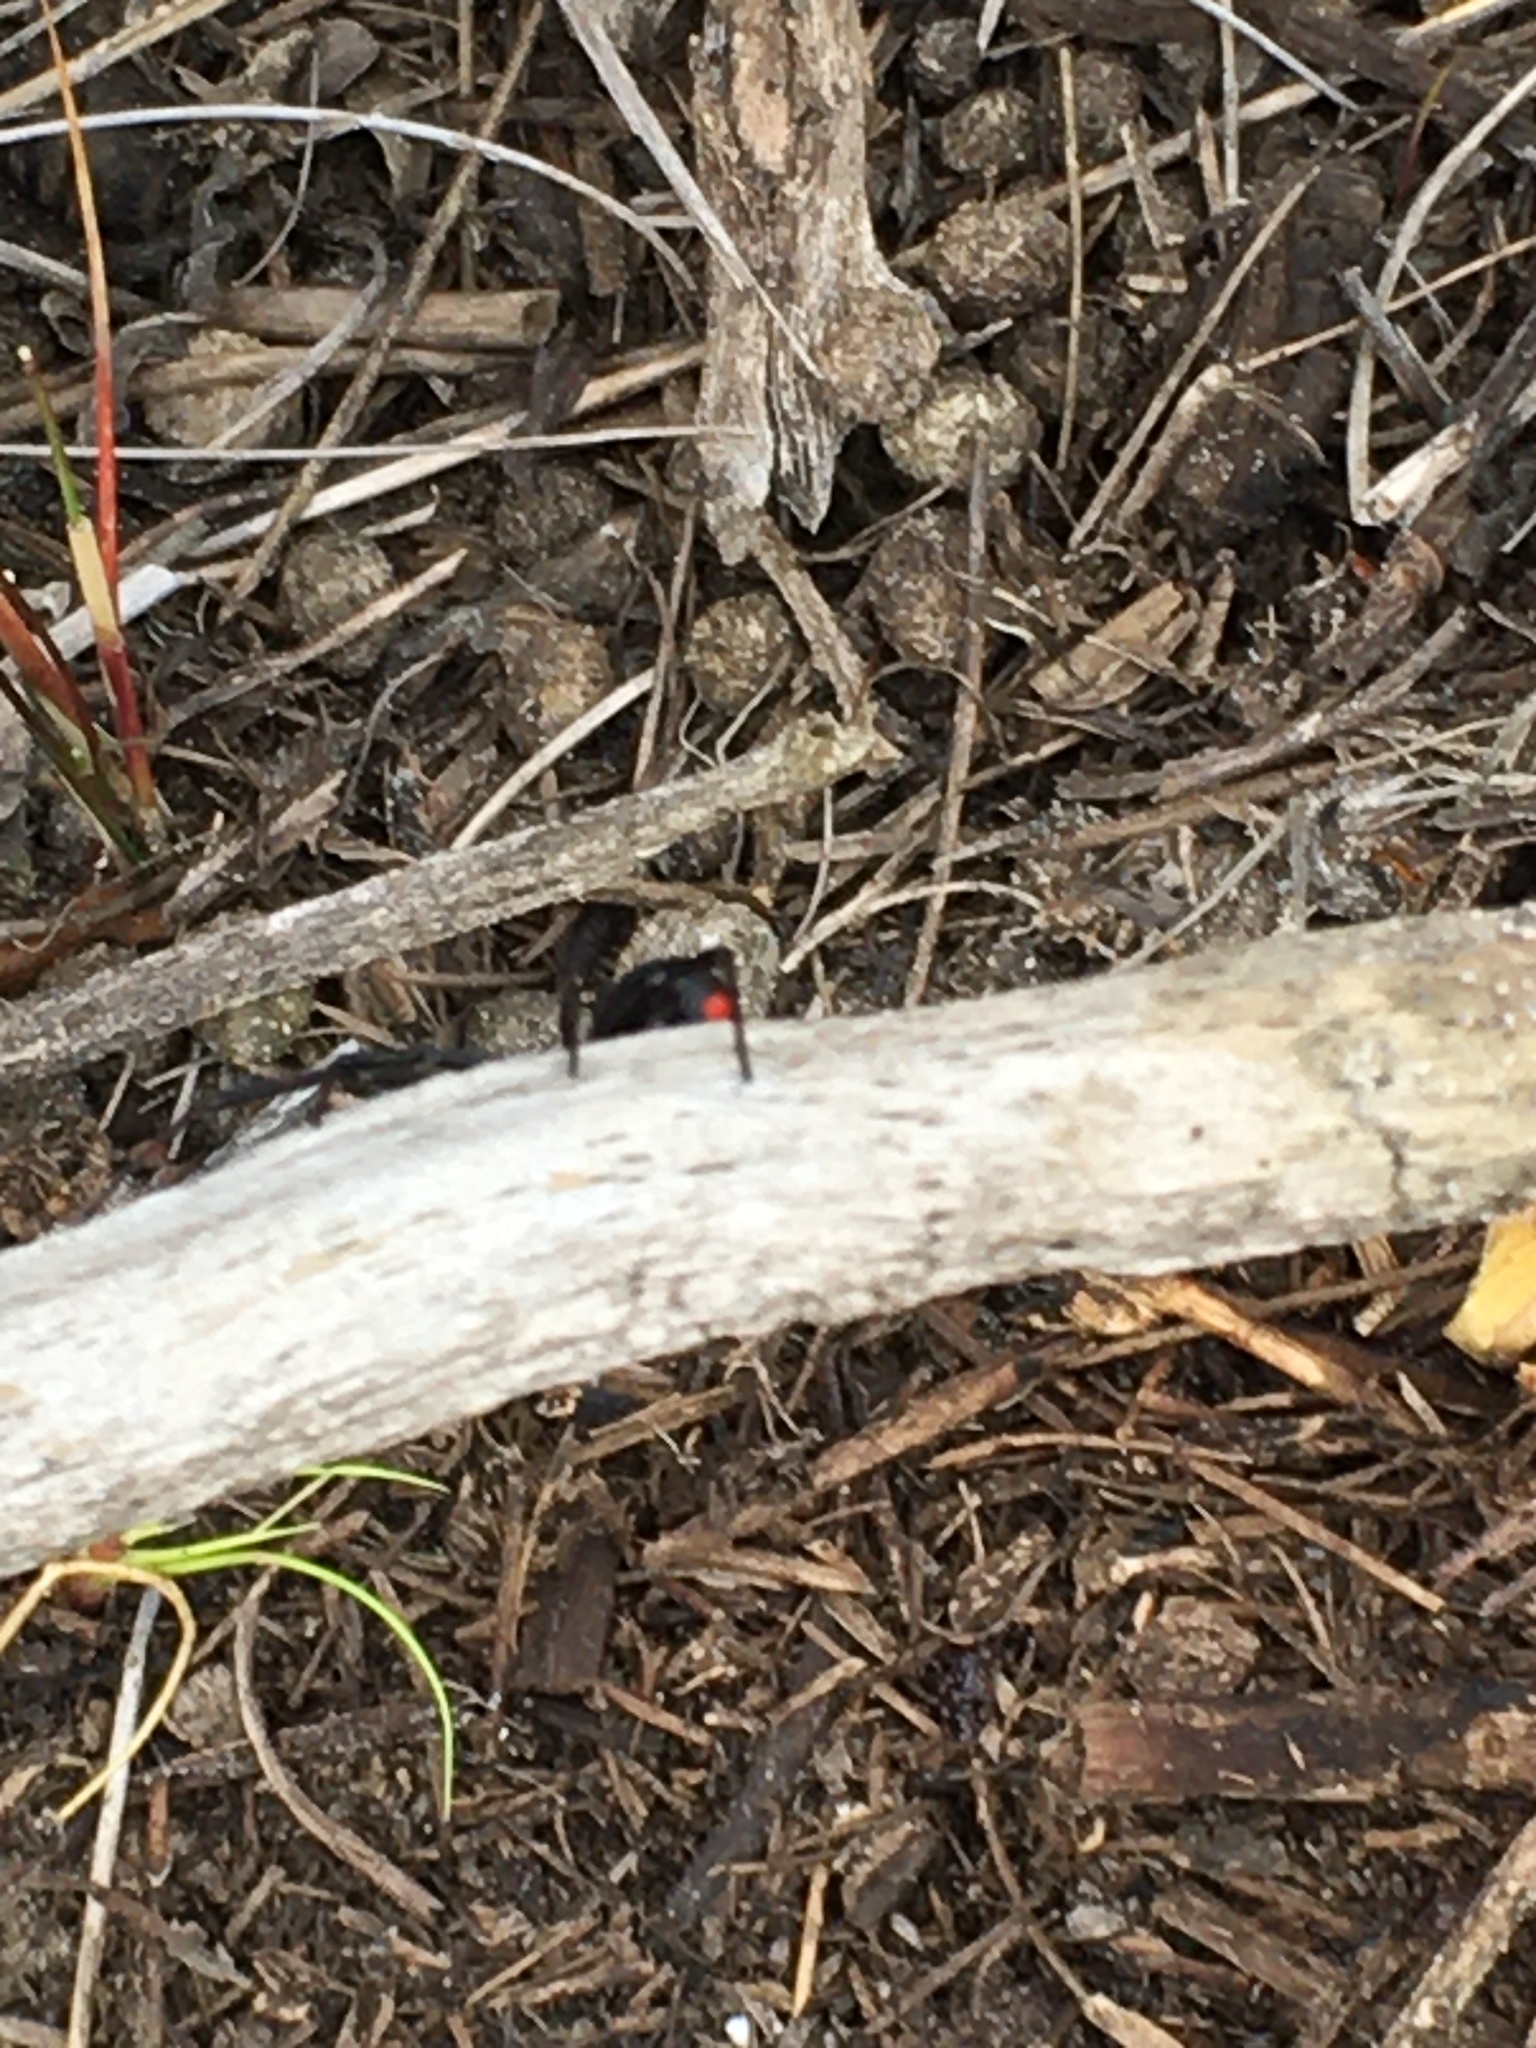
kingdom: Animalia
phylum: Arthropoda
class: Arachnida
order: Araneae
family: Theridiidae
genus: Latrodectus
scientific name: Latrodectus mactans
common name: Cobweb spiders
